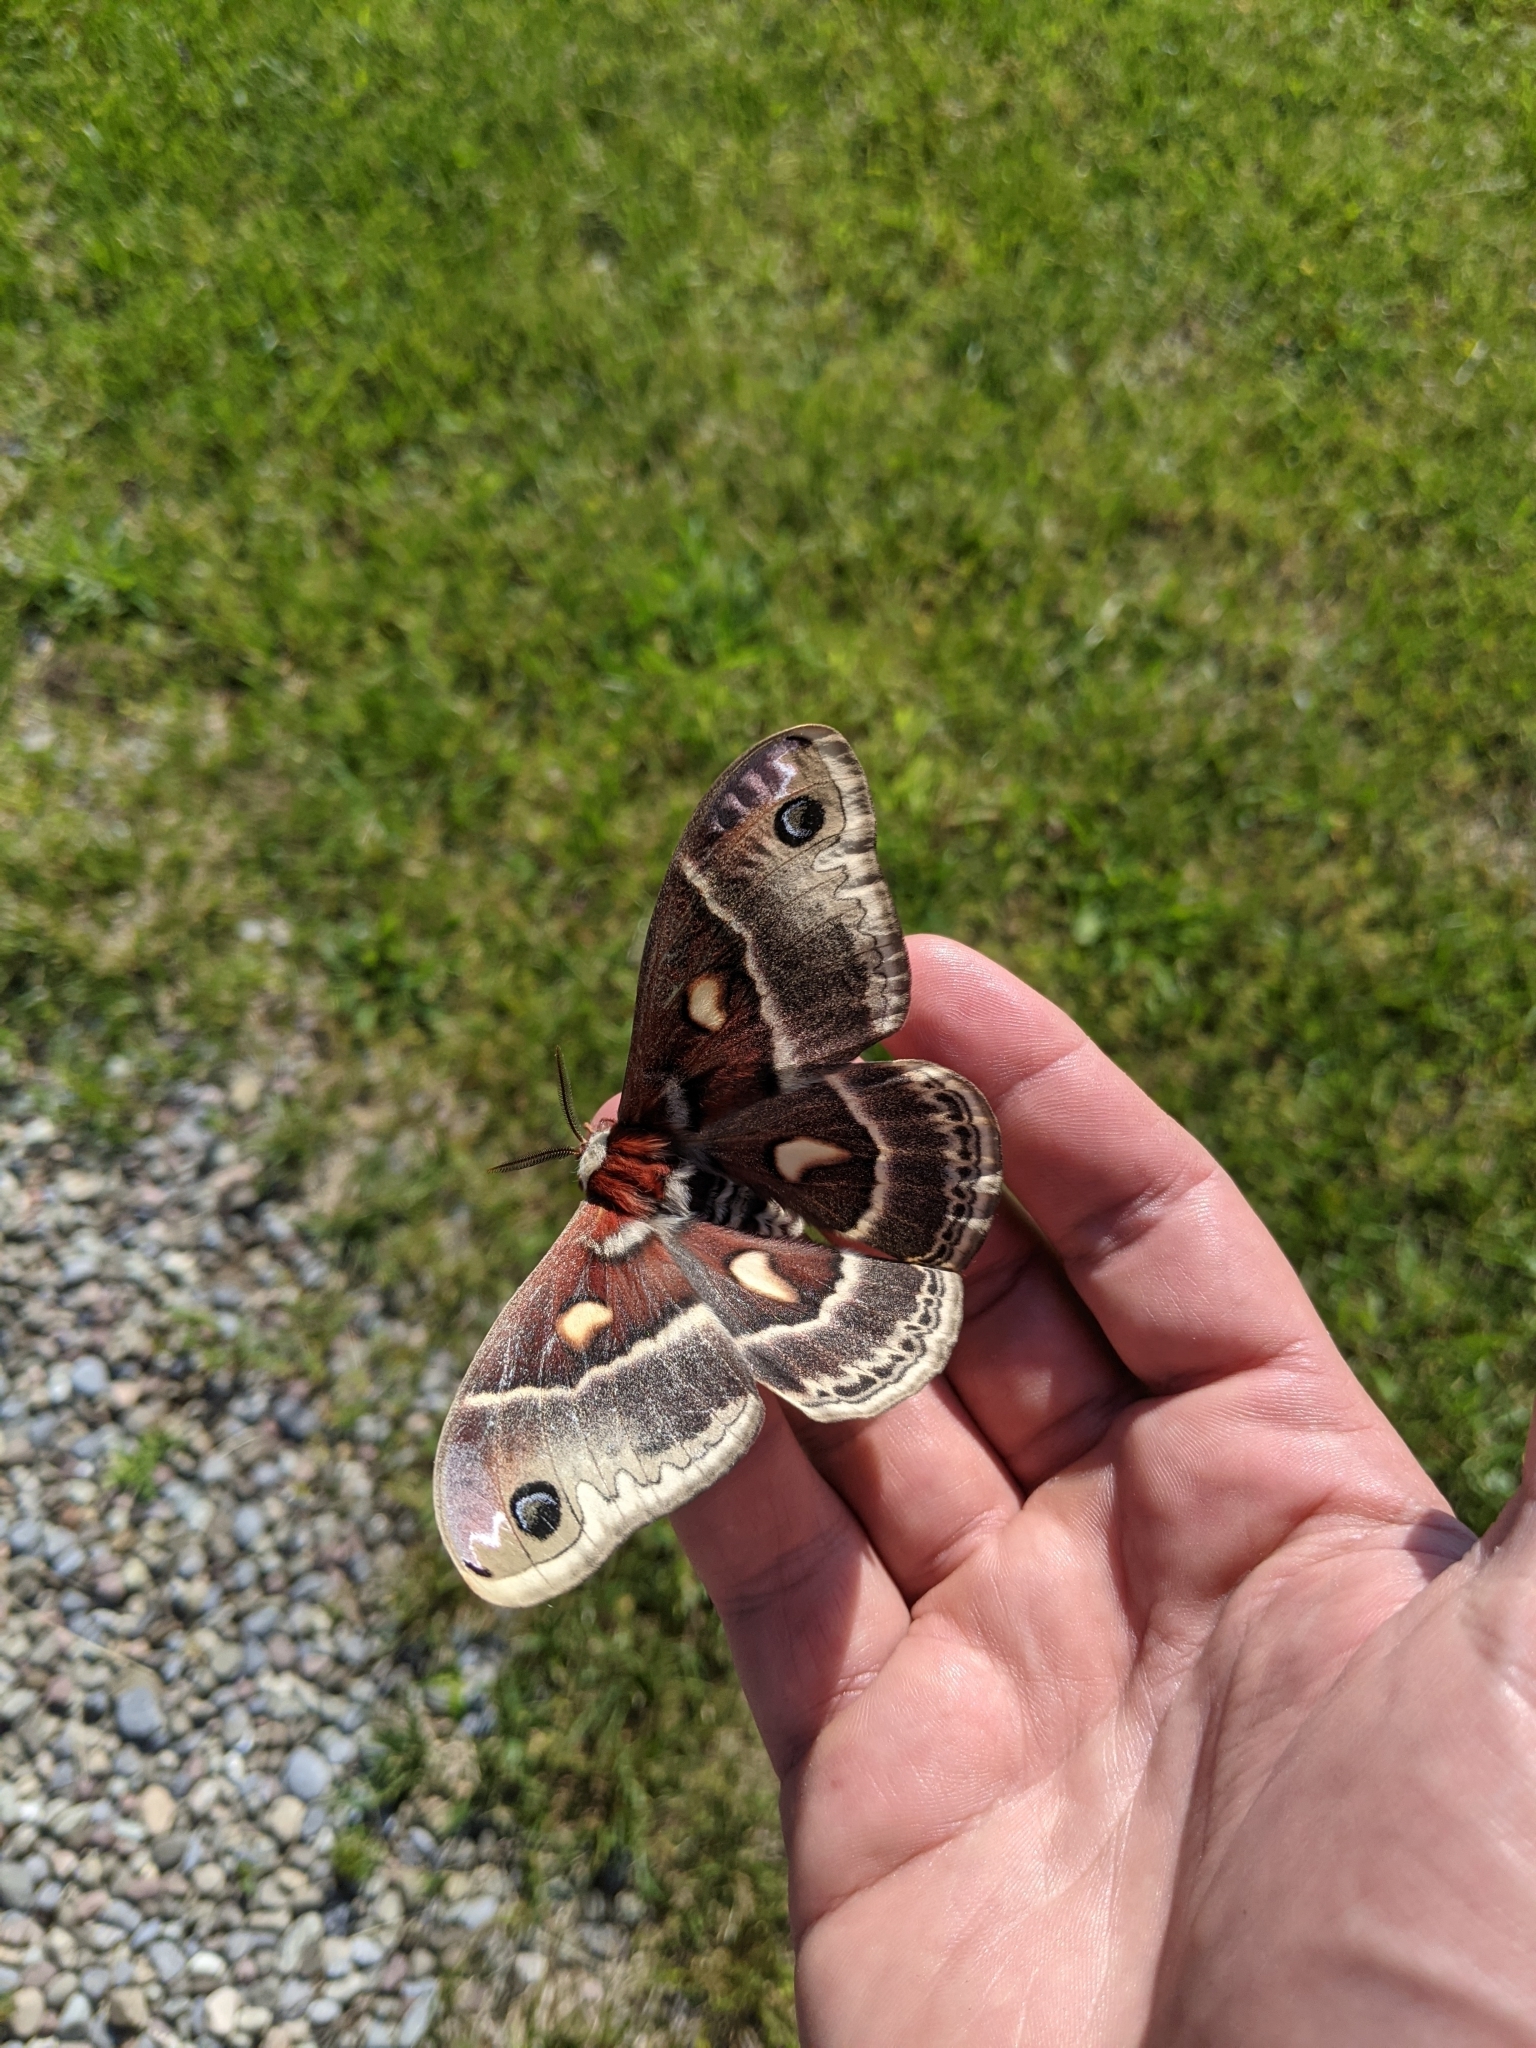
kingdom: Animalia
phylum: Arthropoda
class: Insecta
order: Lepidoptera
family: Saturniidae
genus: Hyalophora
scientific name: Hyalophora columbia
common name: Columbia silkmoth
